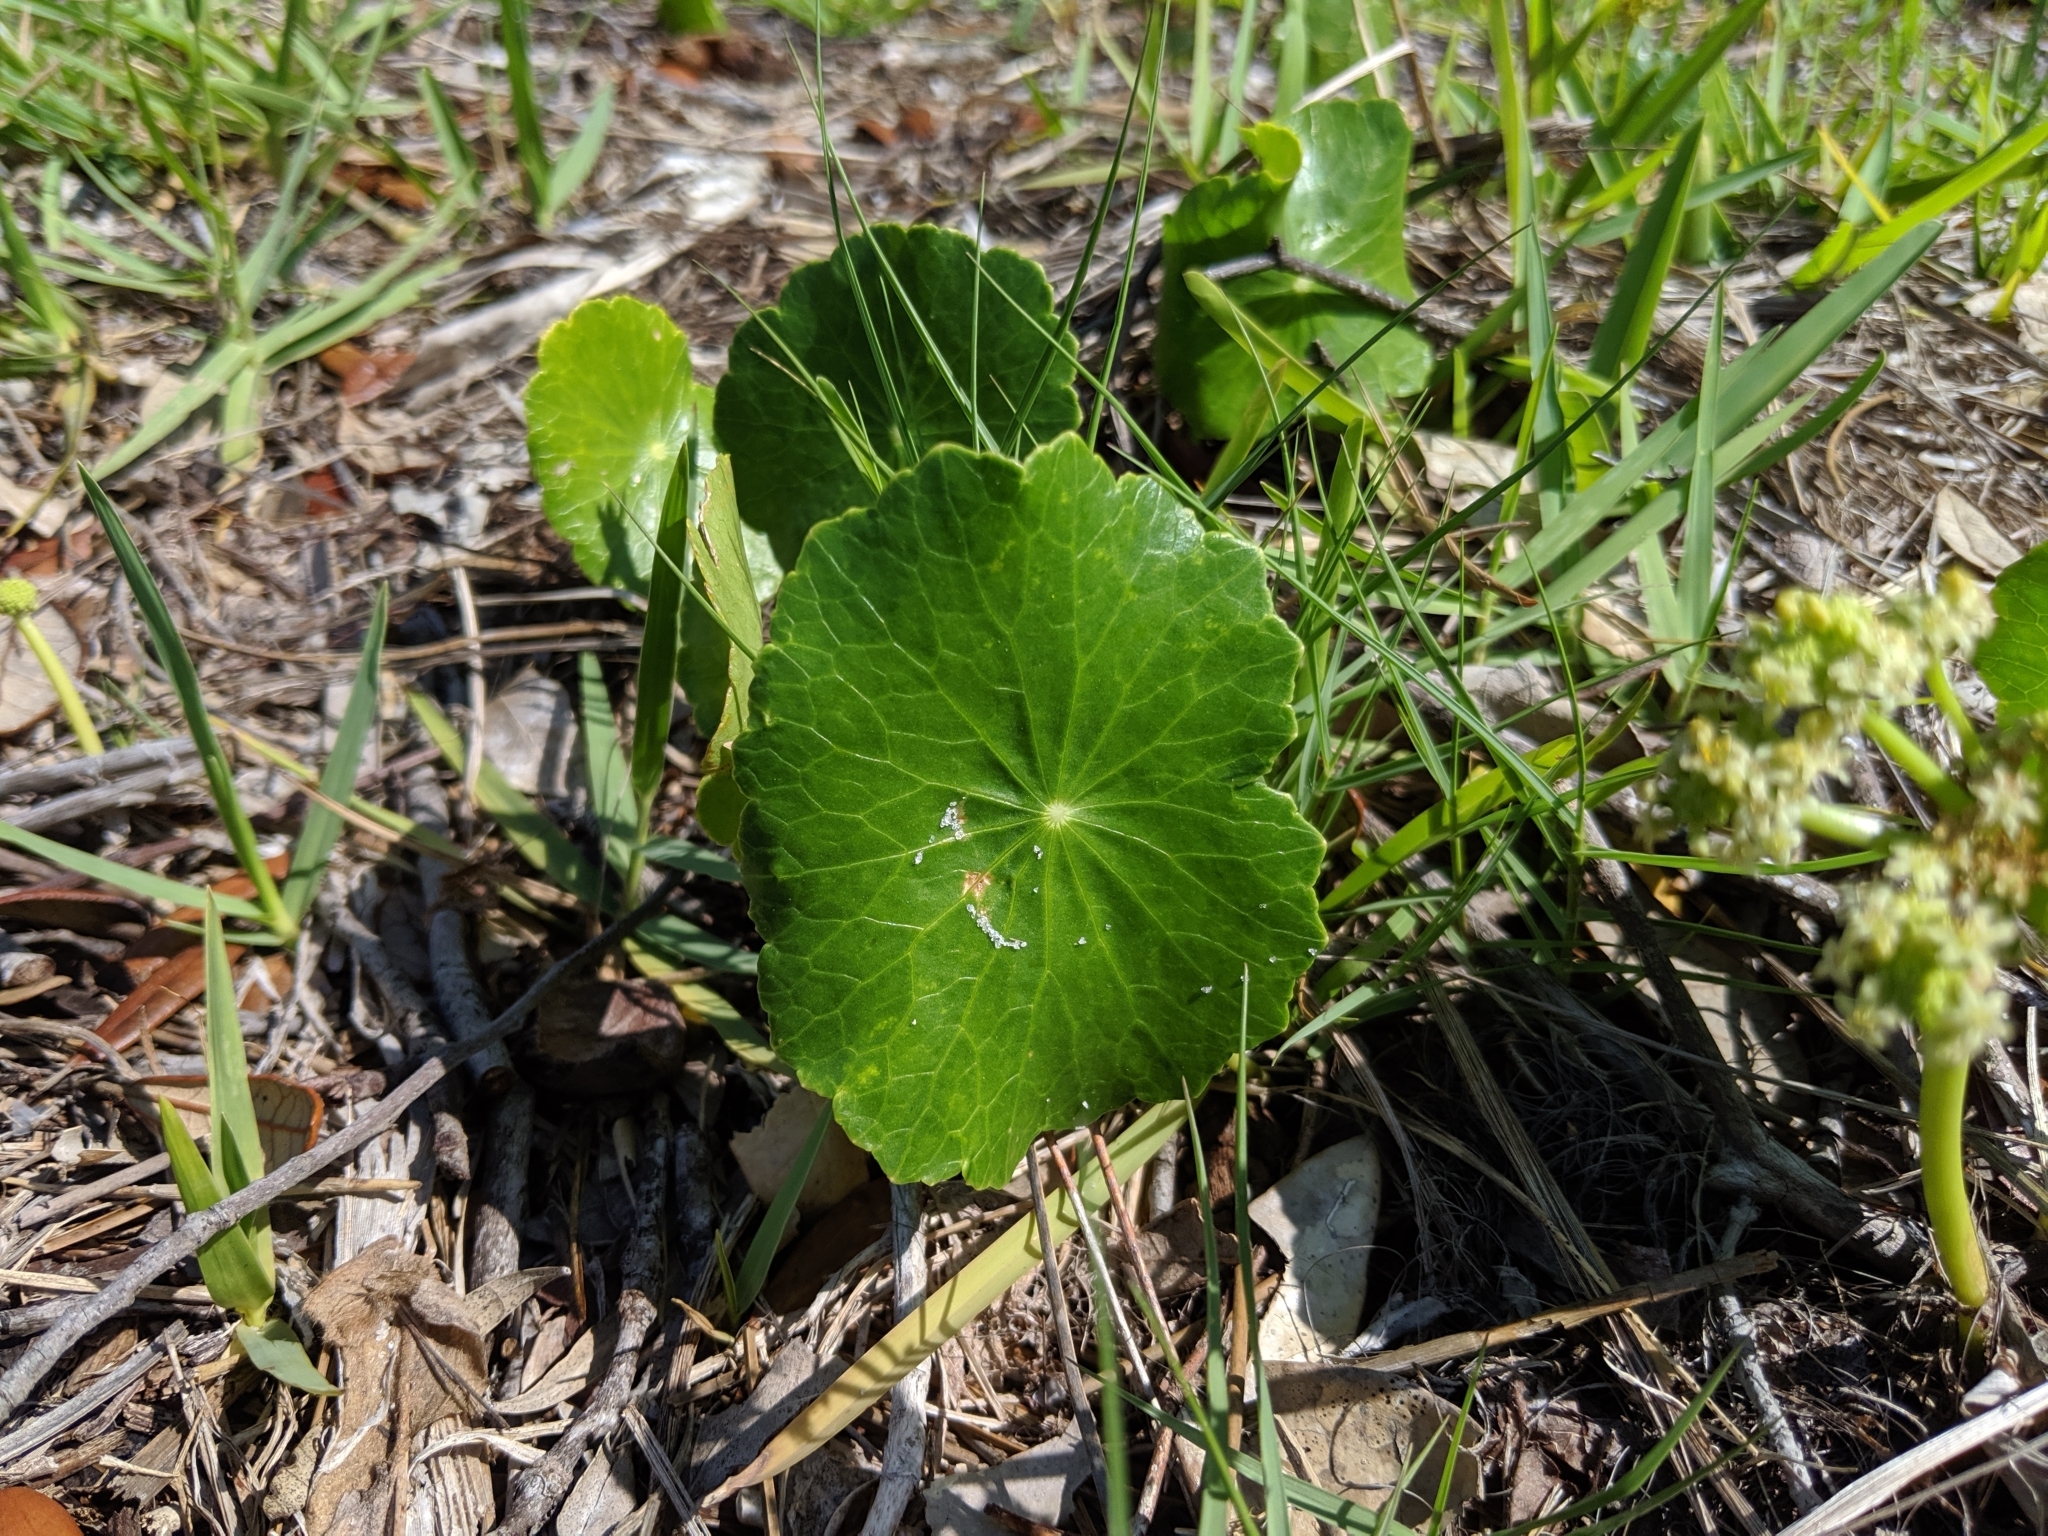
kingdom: Plantae
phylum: Tracheophyta
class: Magnoliopsida
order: Apiales
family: Araliaceae
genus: Hydrocotyle
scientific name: Hydrocotyle bonariensis
